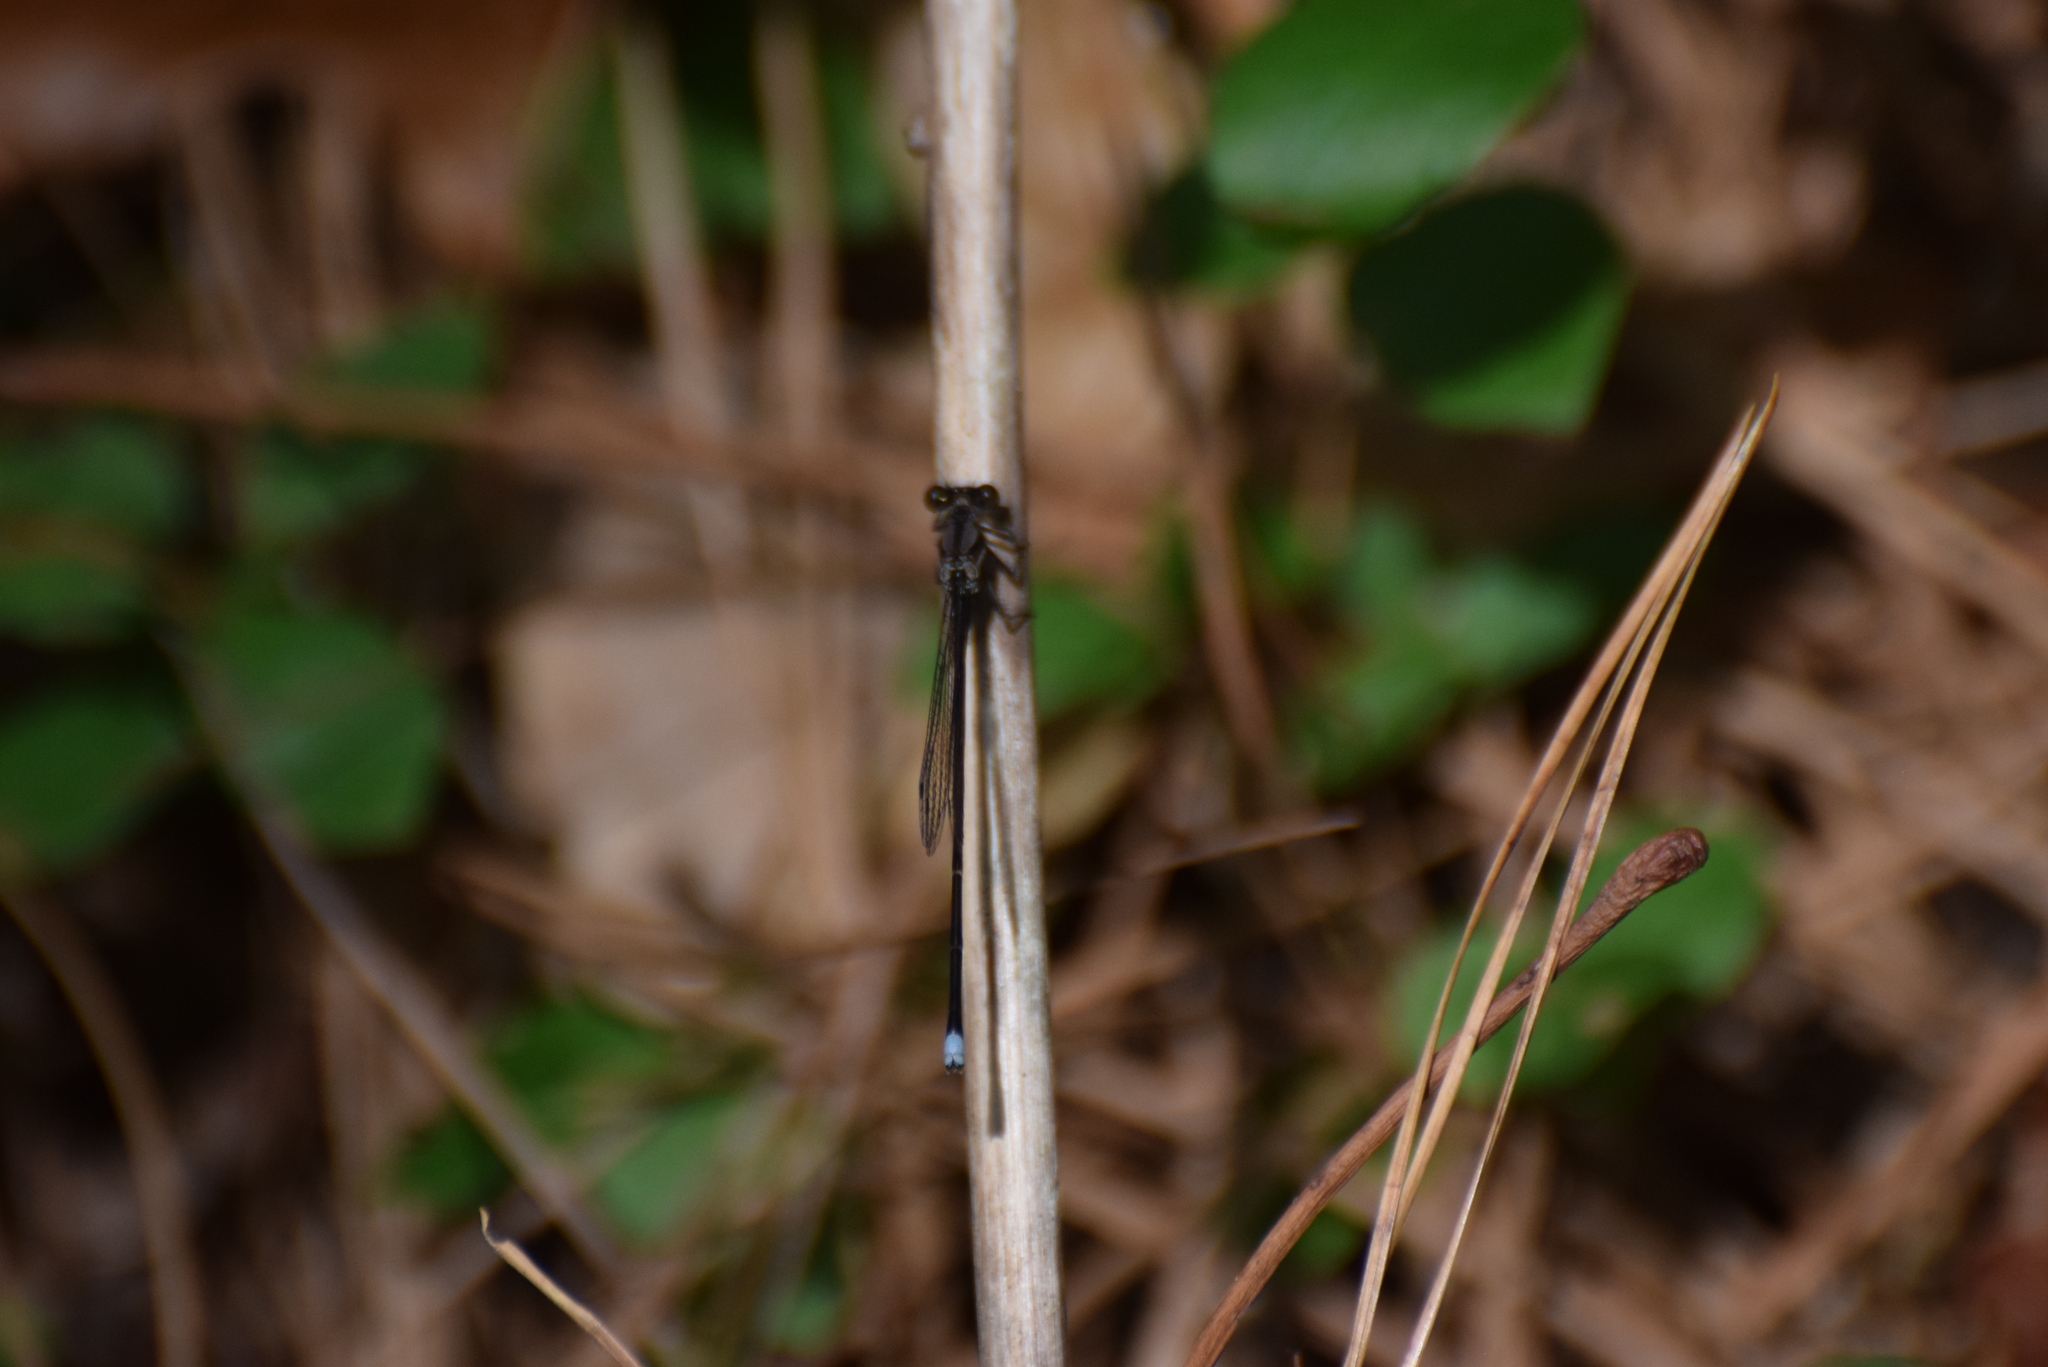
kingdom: Animalia
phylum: Arthropoda
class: Insecta
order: Odonata
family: Coenagrionidae
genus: Argia
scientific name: Argia tibialis
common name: Blue-tipped dancer
